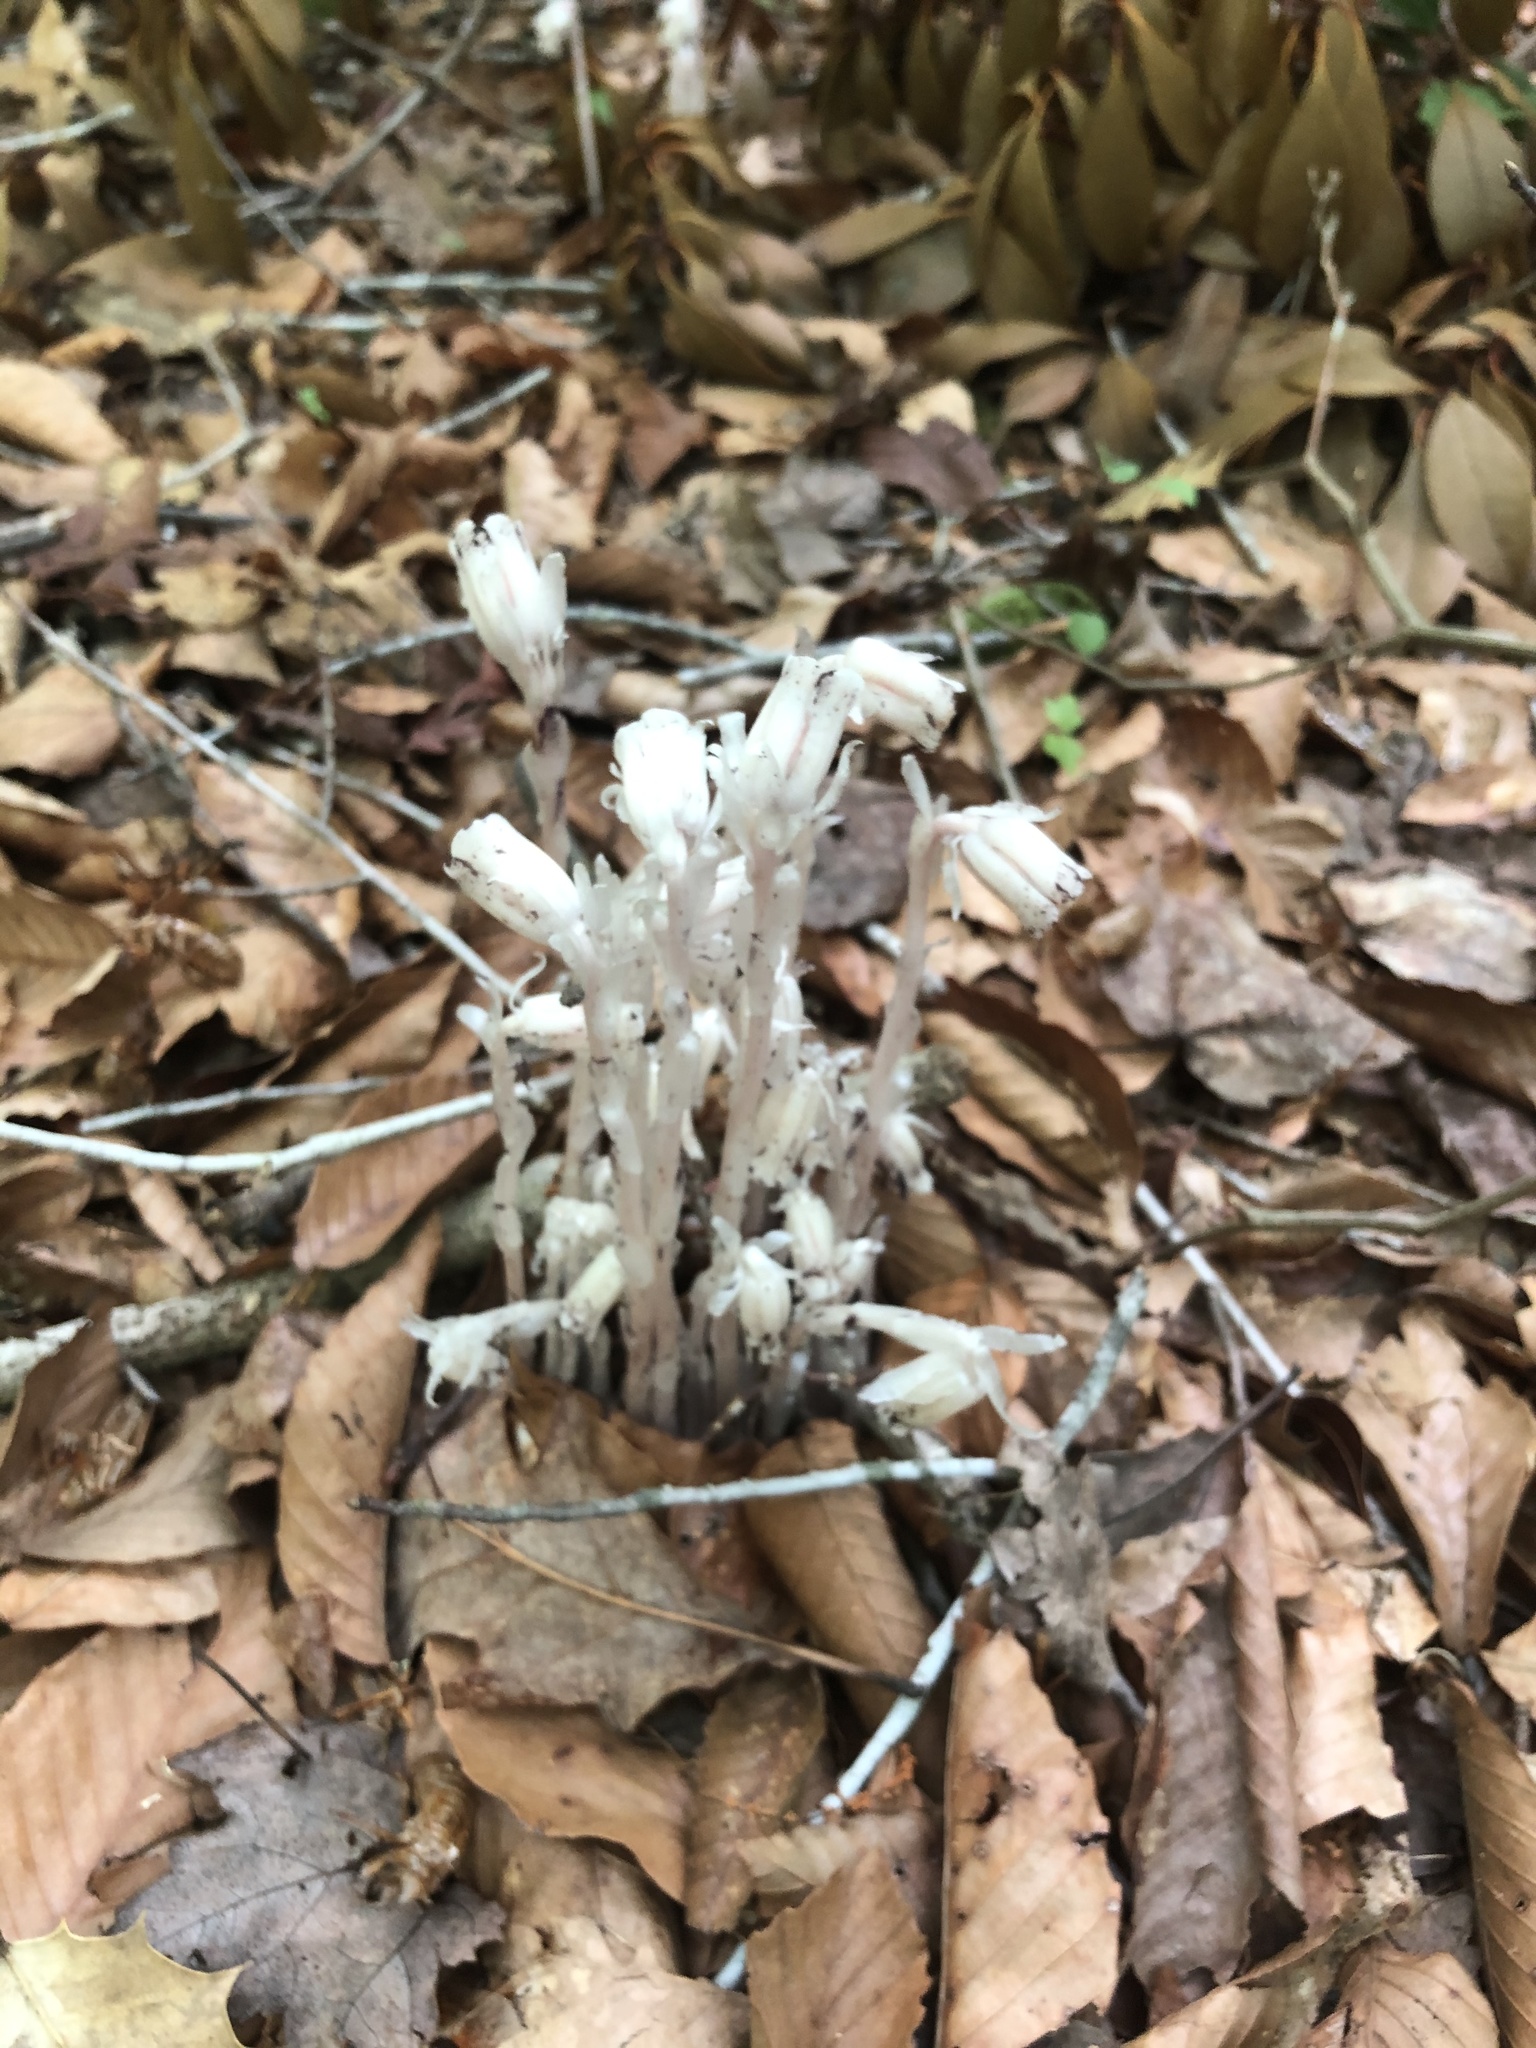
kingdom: Plantae
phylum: Tracheophyta
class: Magnoliopsida
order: Ericales
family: Ericaceae
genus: Monotropa
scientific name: Monotropa uniflora
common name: Convulsion root
